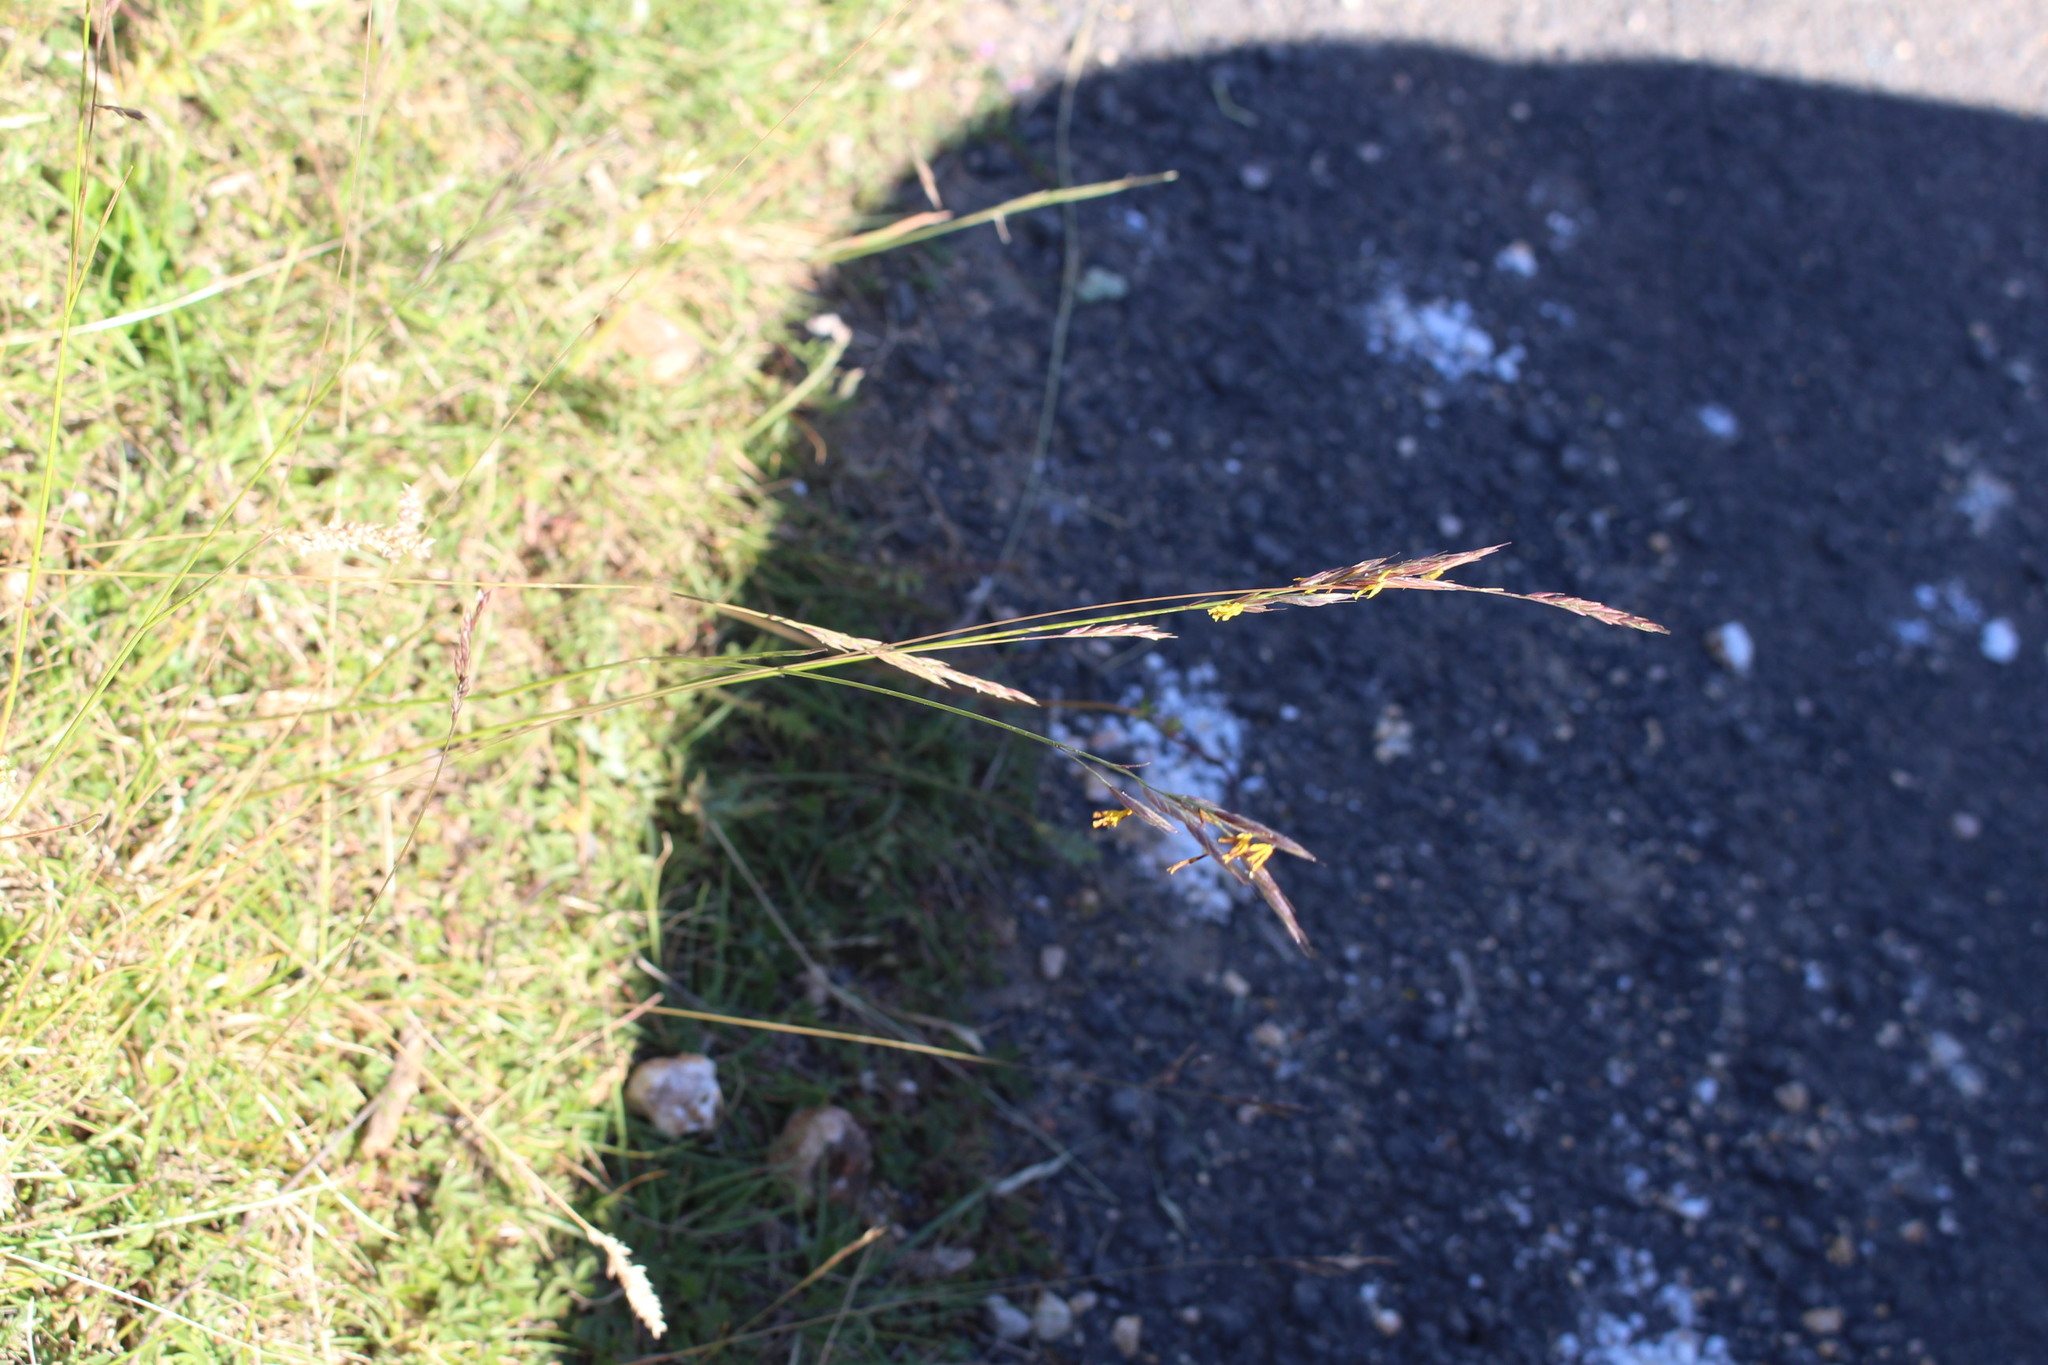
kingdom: Plantae
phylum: Tracheophyta
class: Liliopsida
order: Poales
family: Poaceae
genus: Bromus
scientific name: Bromus erectus
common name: Erect brome
